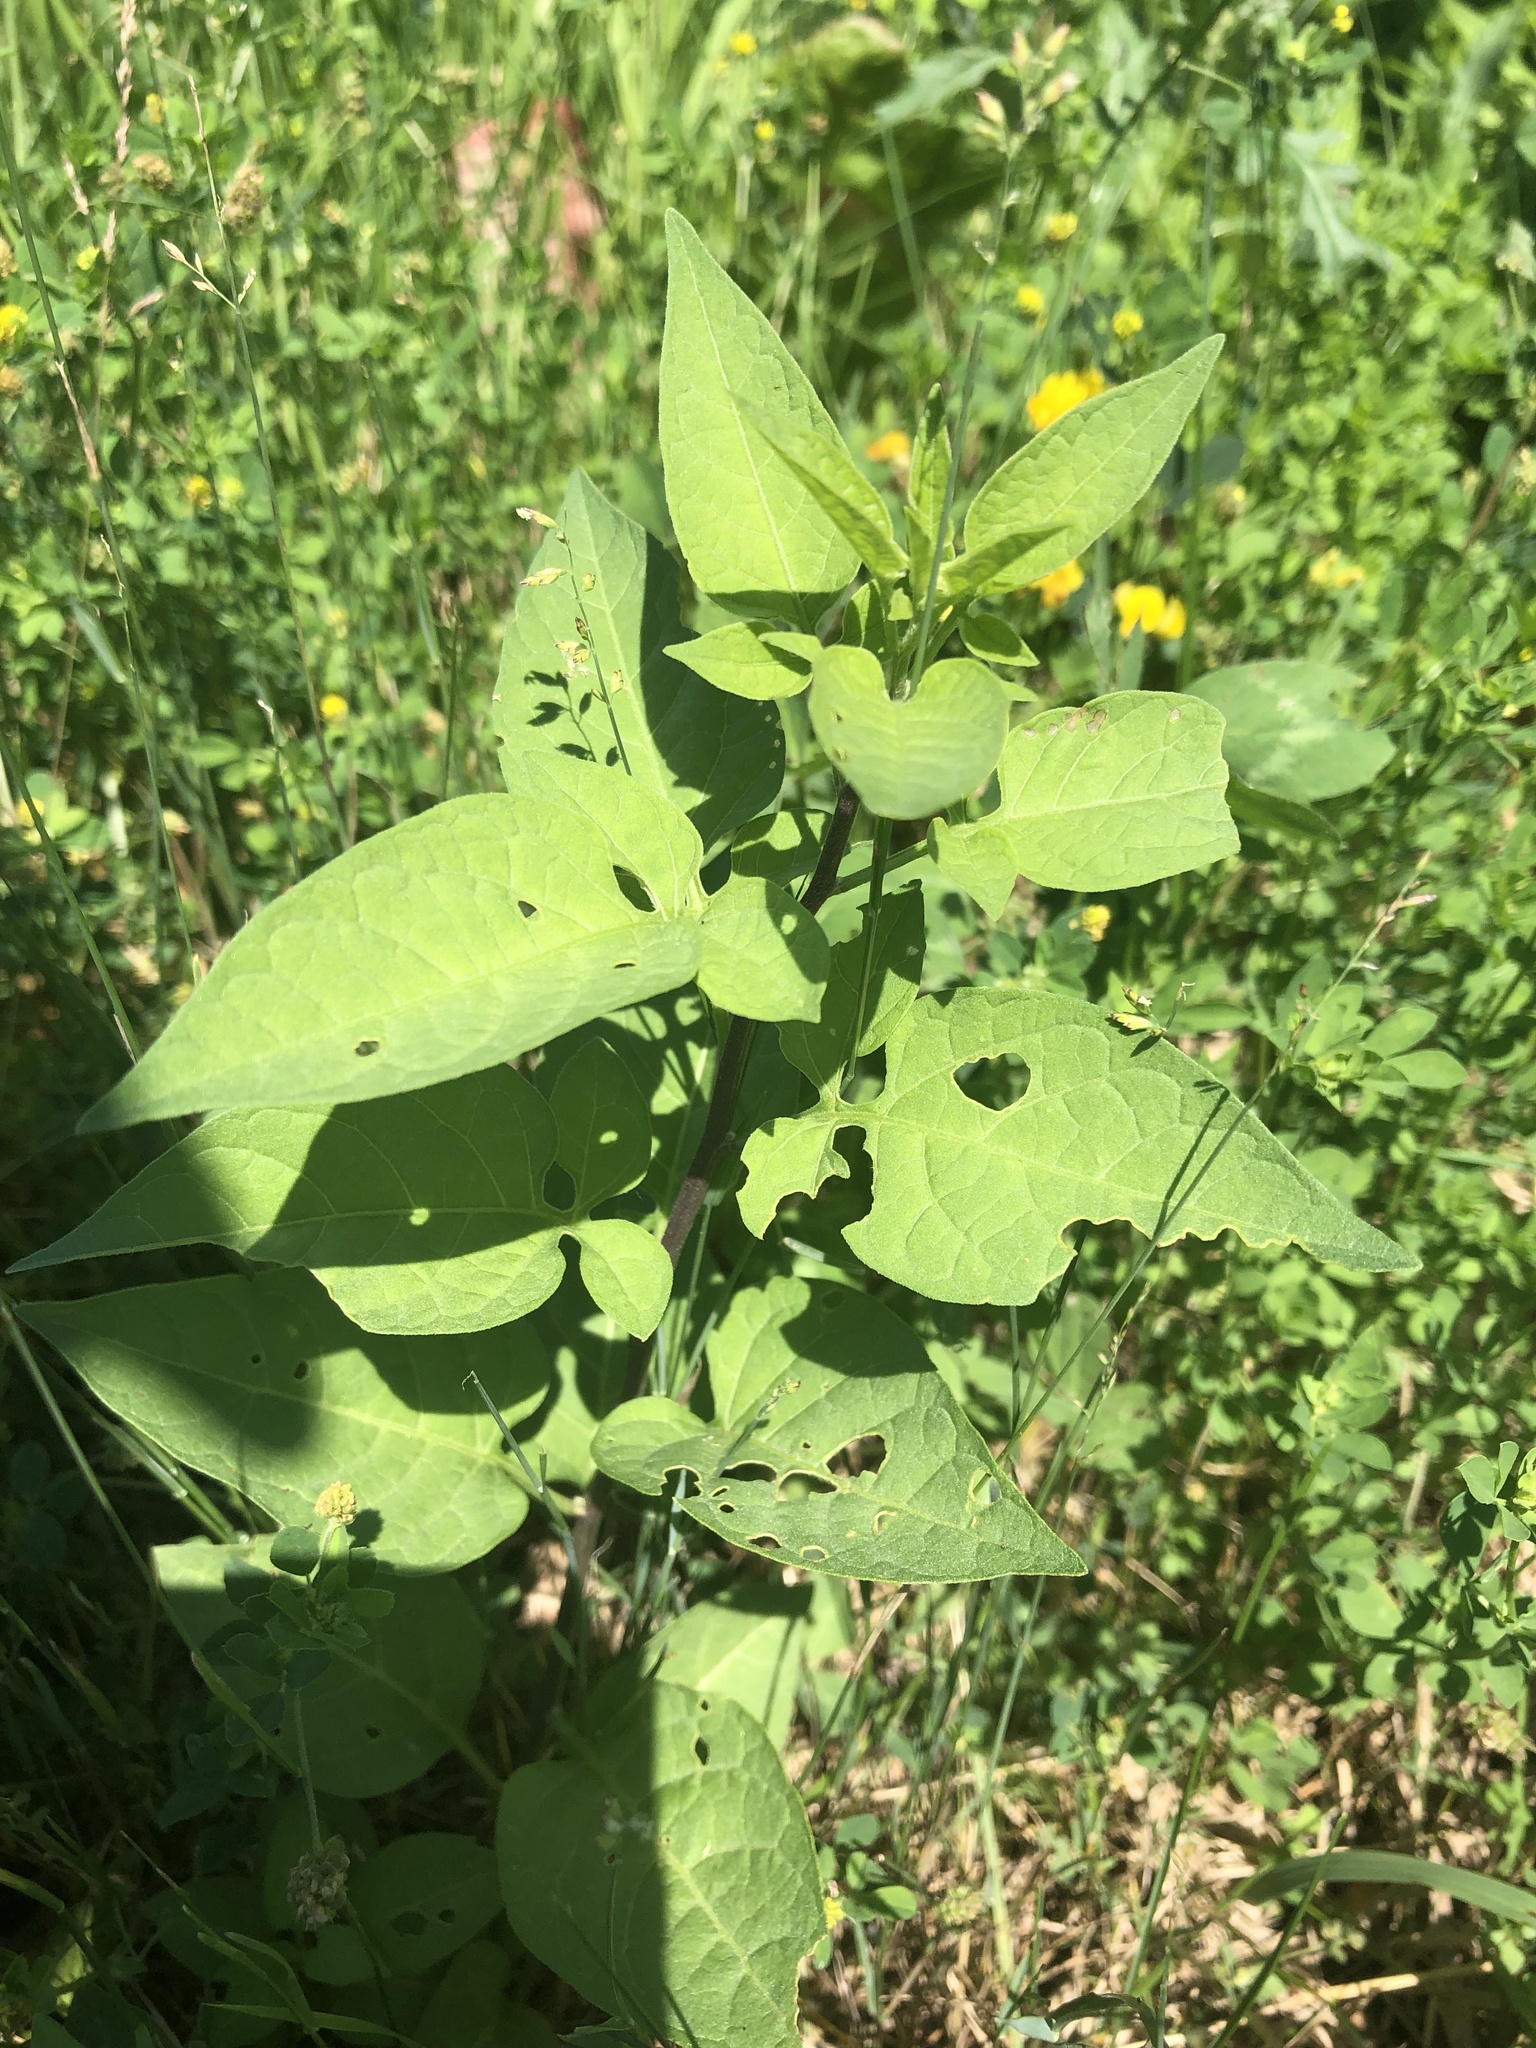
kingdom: Plantae
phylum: Tracheophyta
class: Magnoliopsida
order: Solanales
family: Solanaceae
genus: Solanum
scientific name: Solanum dulcamara
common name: Climbing nightshade
